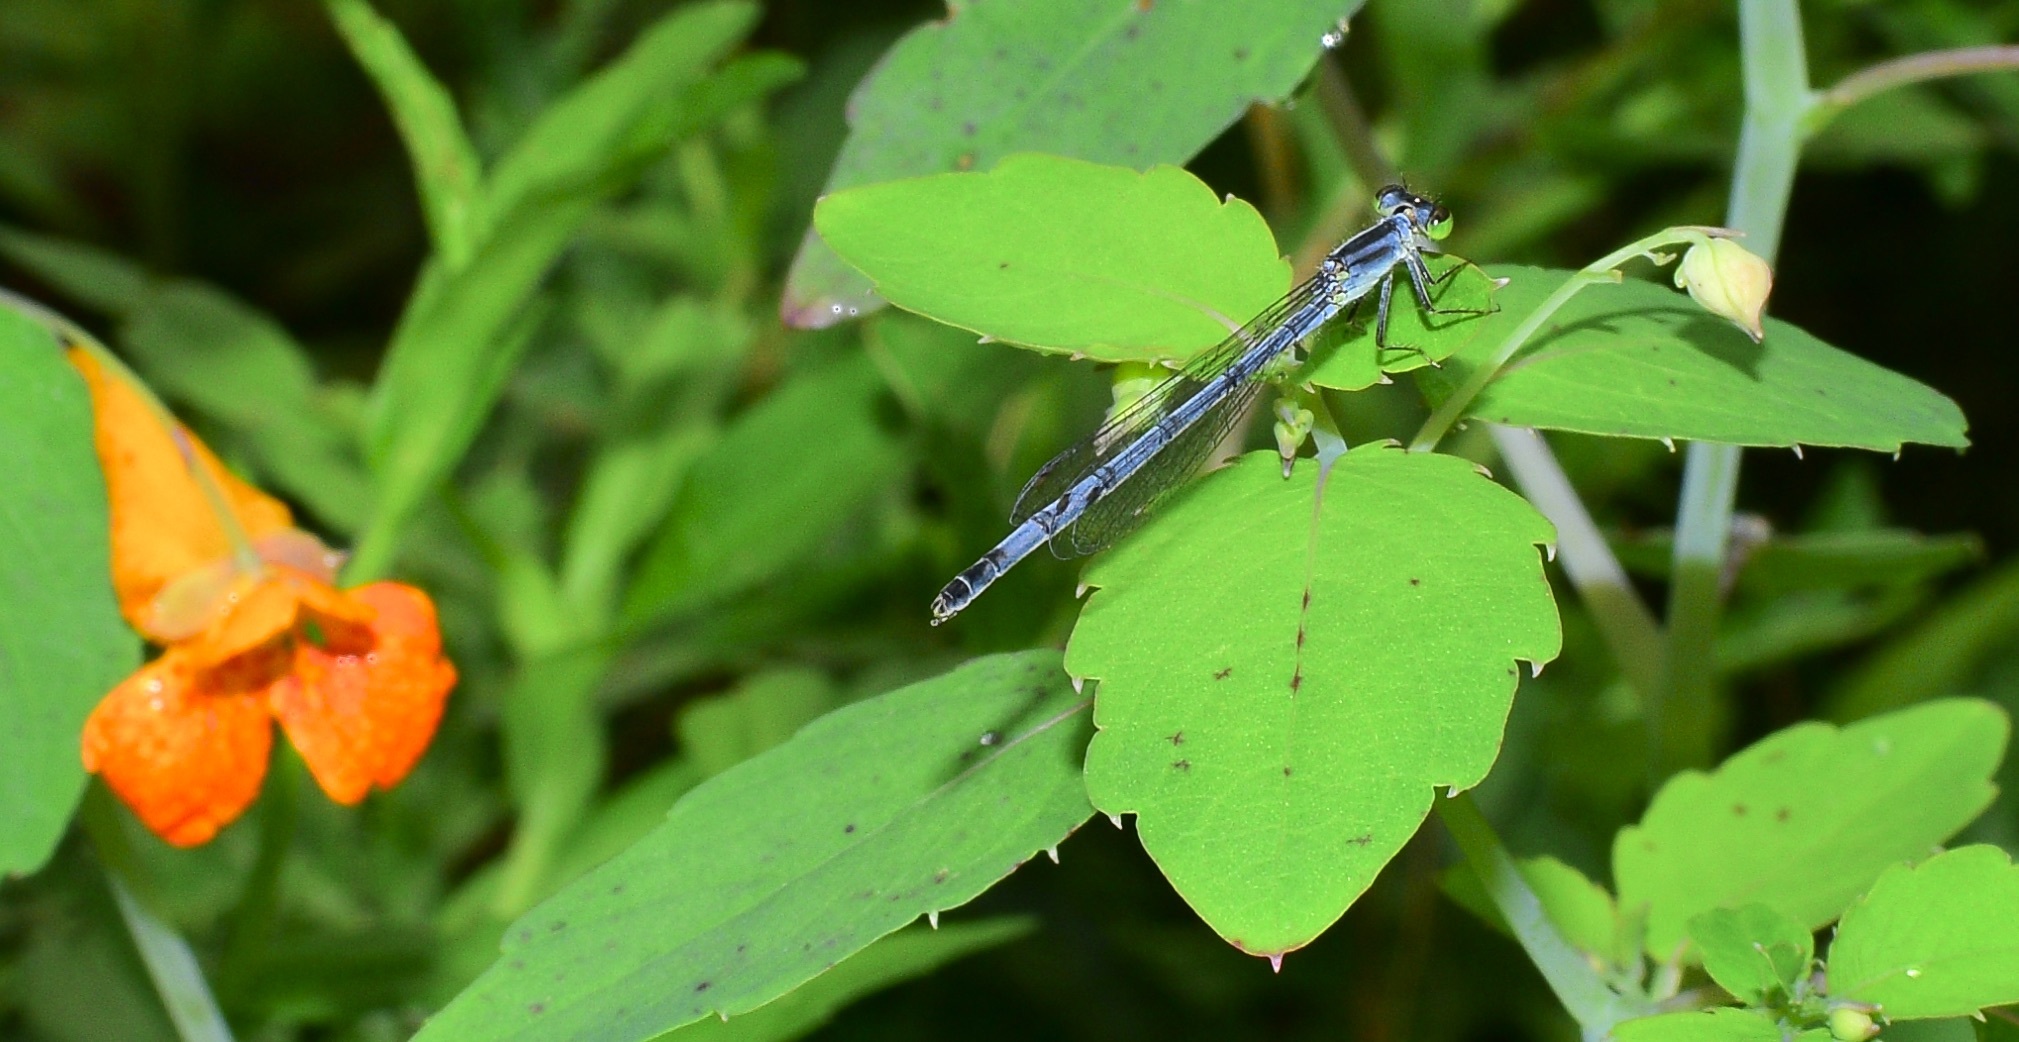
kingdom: Animalia
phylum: Arthropoda
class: Insecta
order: Odonata
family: Coenagrionidae
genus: Ischnura
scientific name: Ischnura verticalis
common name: Eastern forktail
